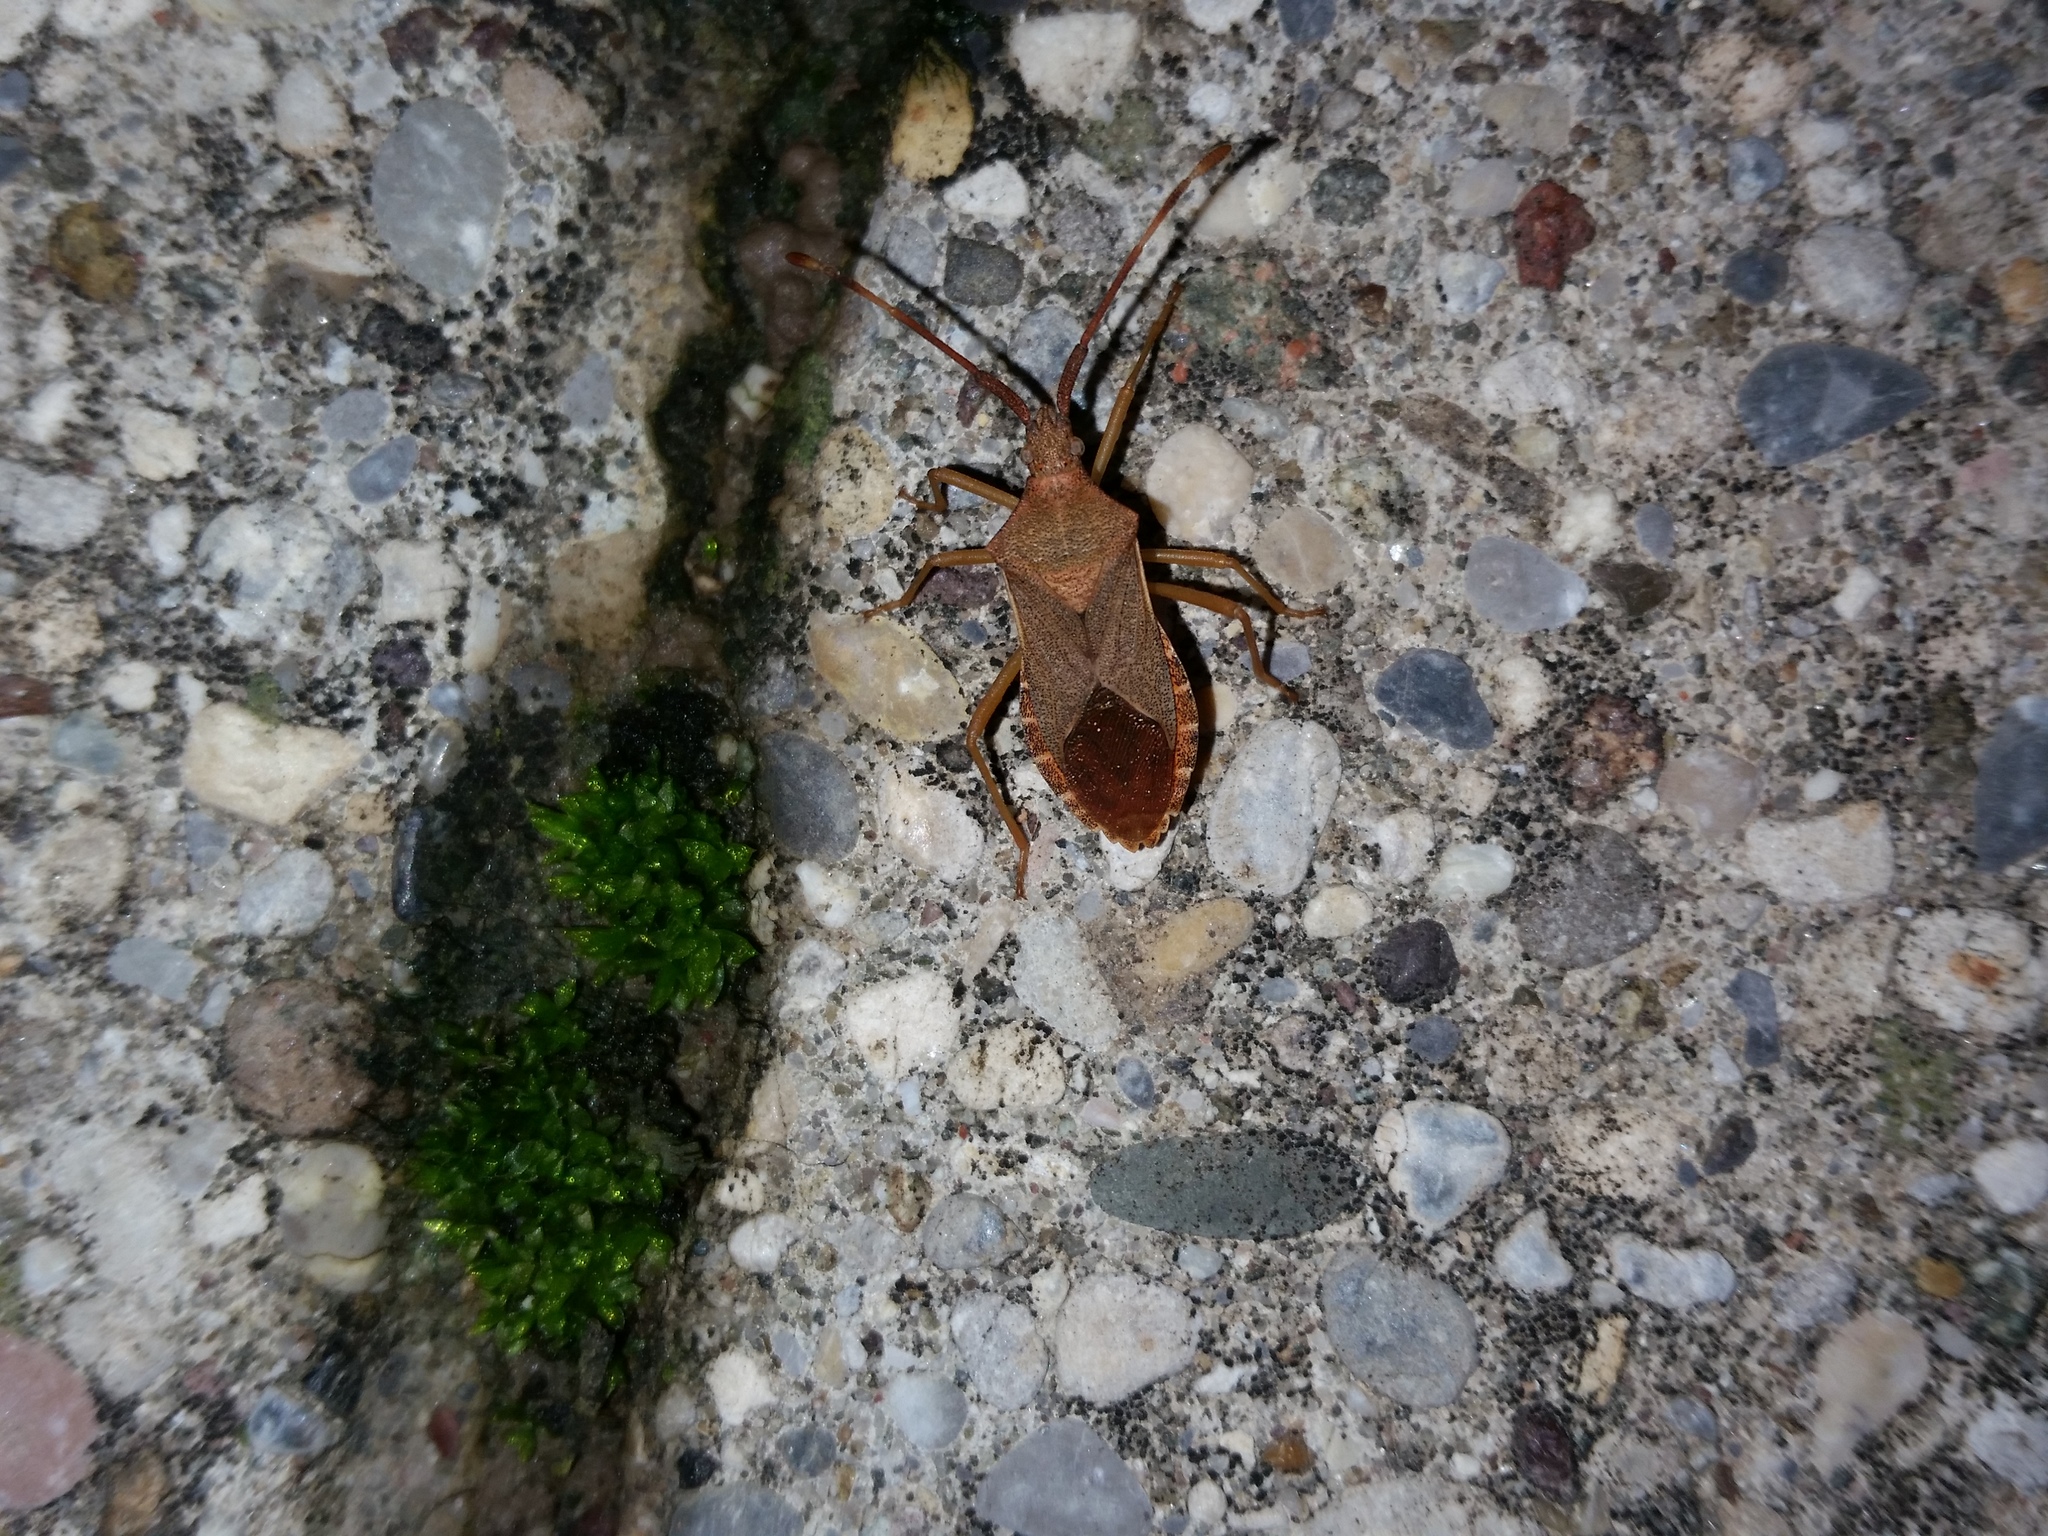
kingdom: Animalia
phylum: Arthropoda
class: Insecta
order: Hemiptera
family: Coreidae
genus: Gonocerus
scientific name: Gonocerus acuteangulatus
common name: Box bug
